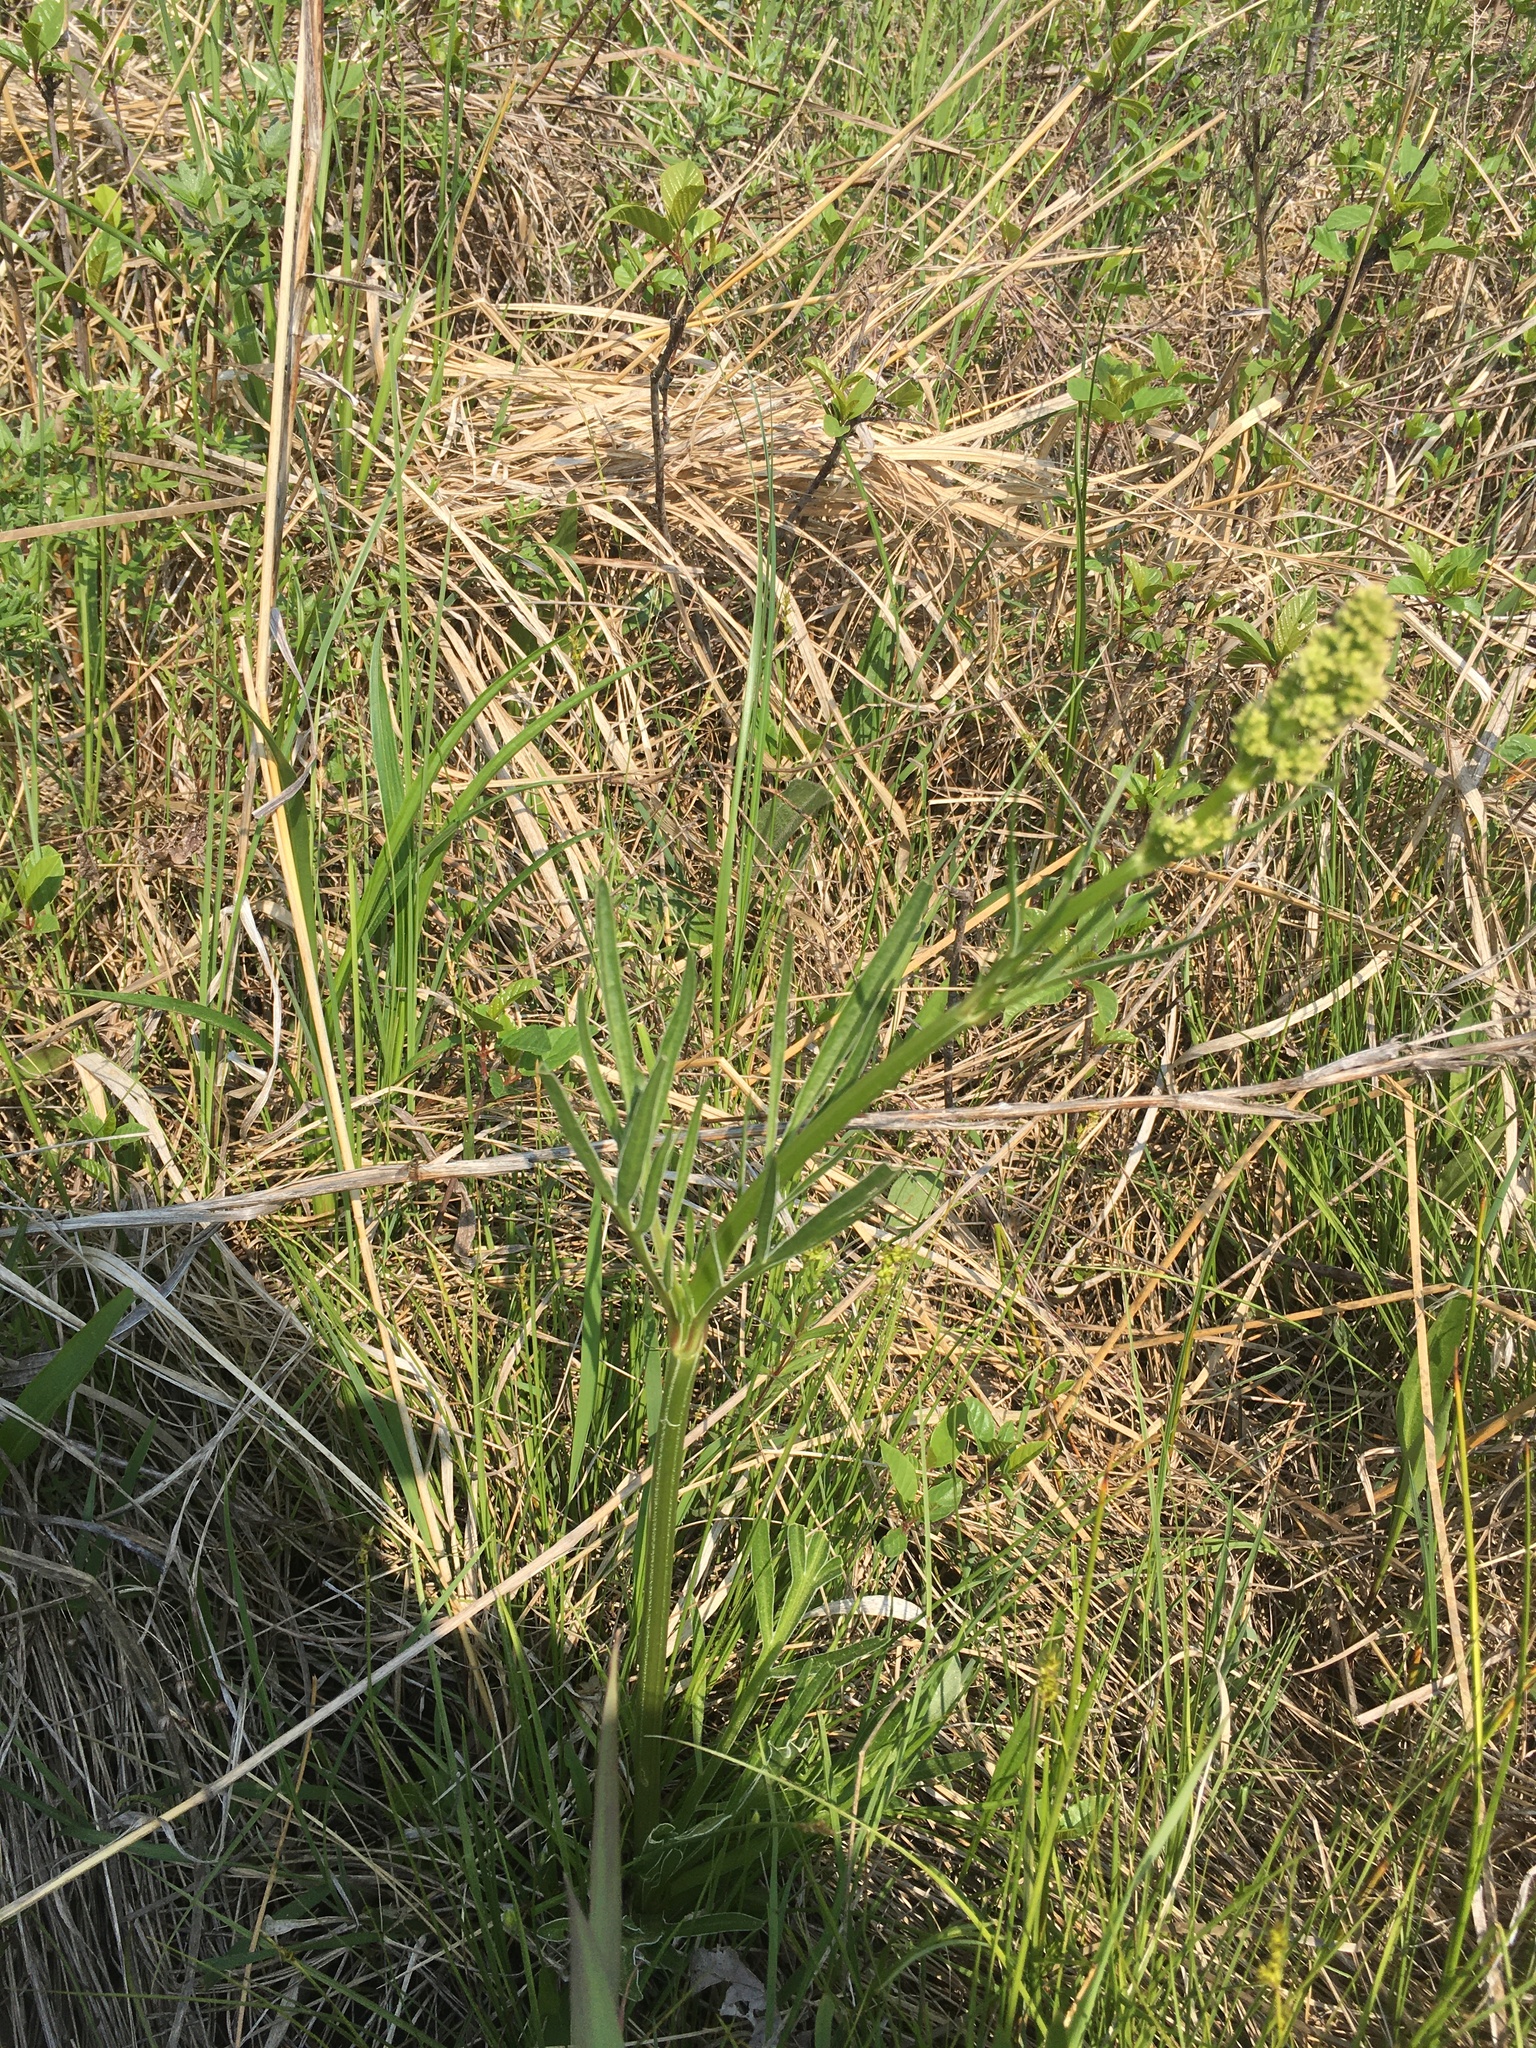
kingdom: Plantae
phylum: Tracheophyta
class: Magnoliopsida
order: Dipsacales
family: Caprifoliaceae
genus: Valeriana
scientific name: Valeriana edulis
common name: Taproot valerian
